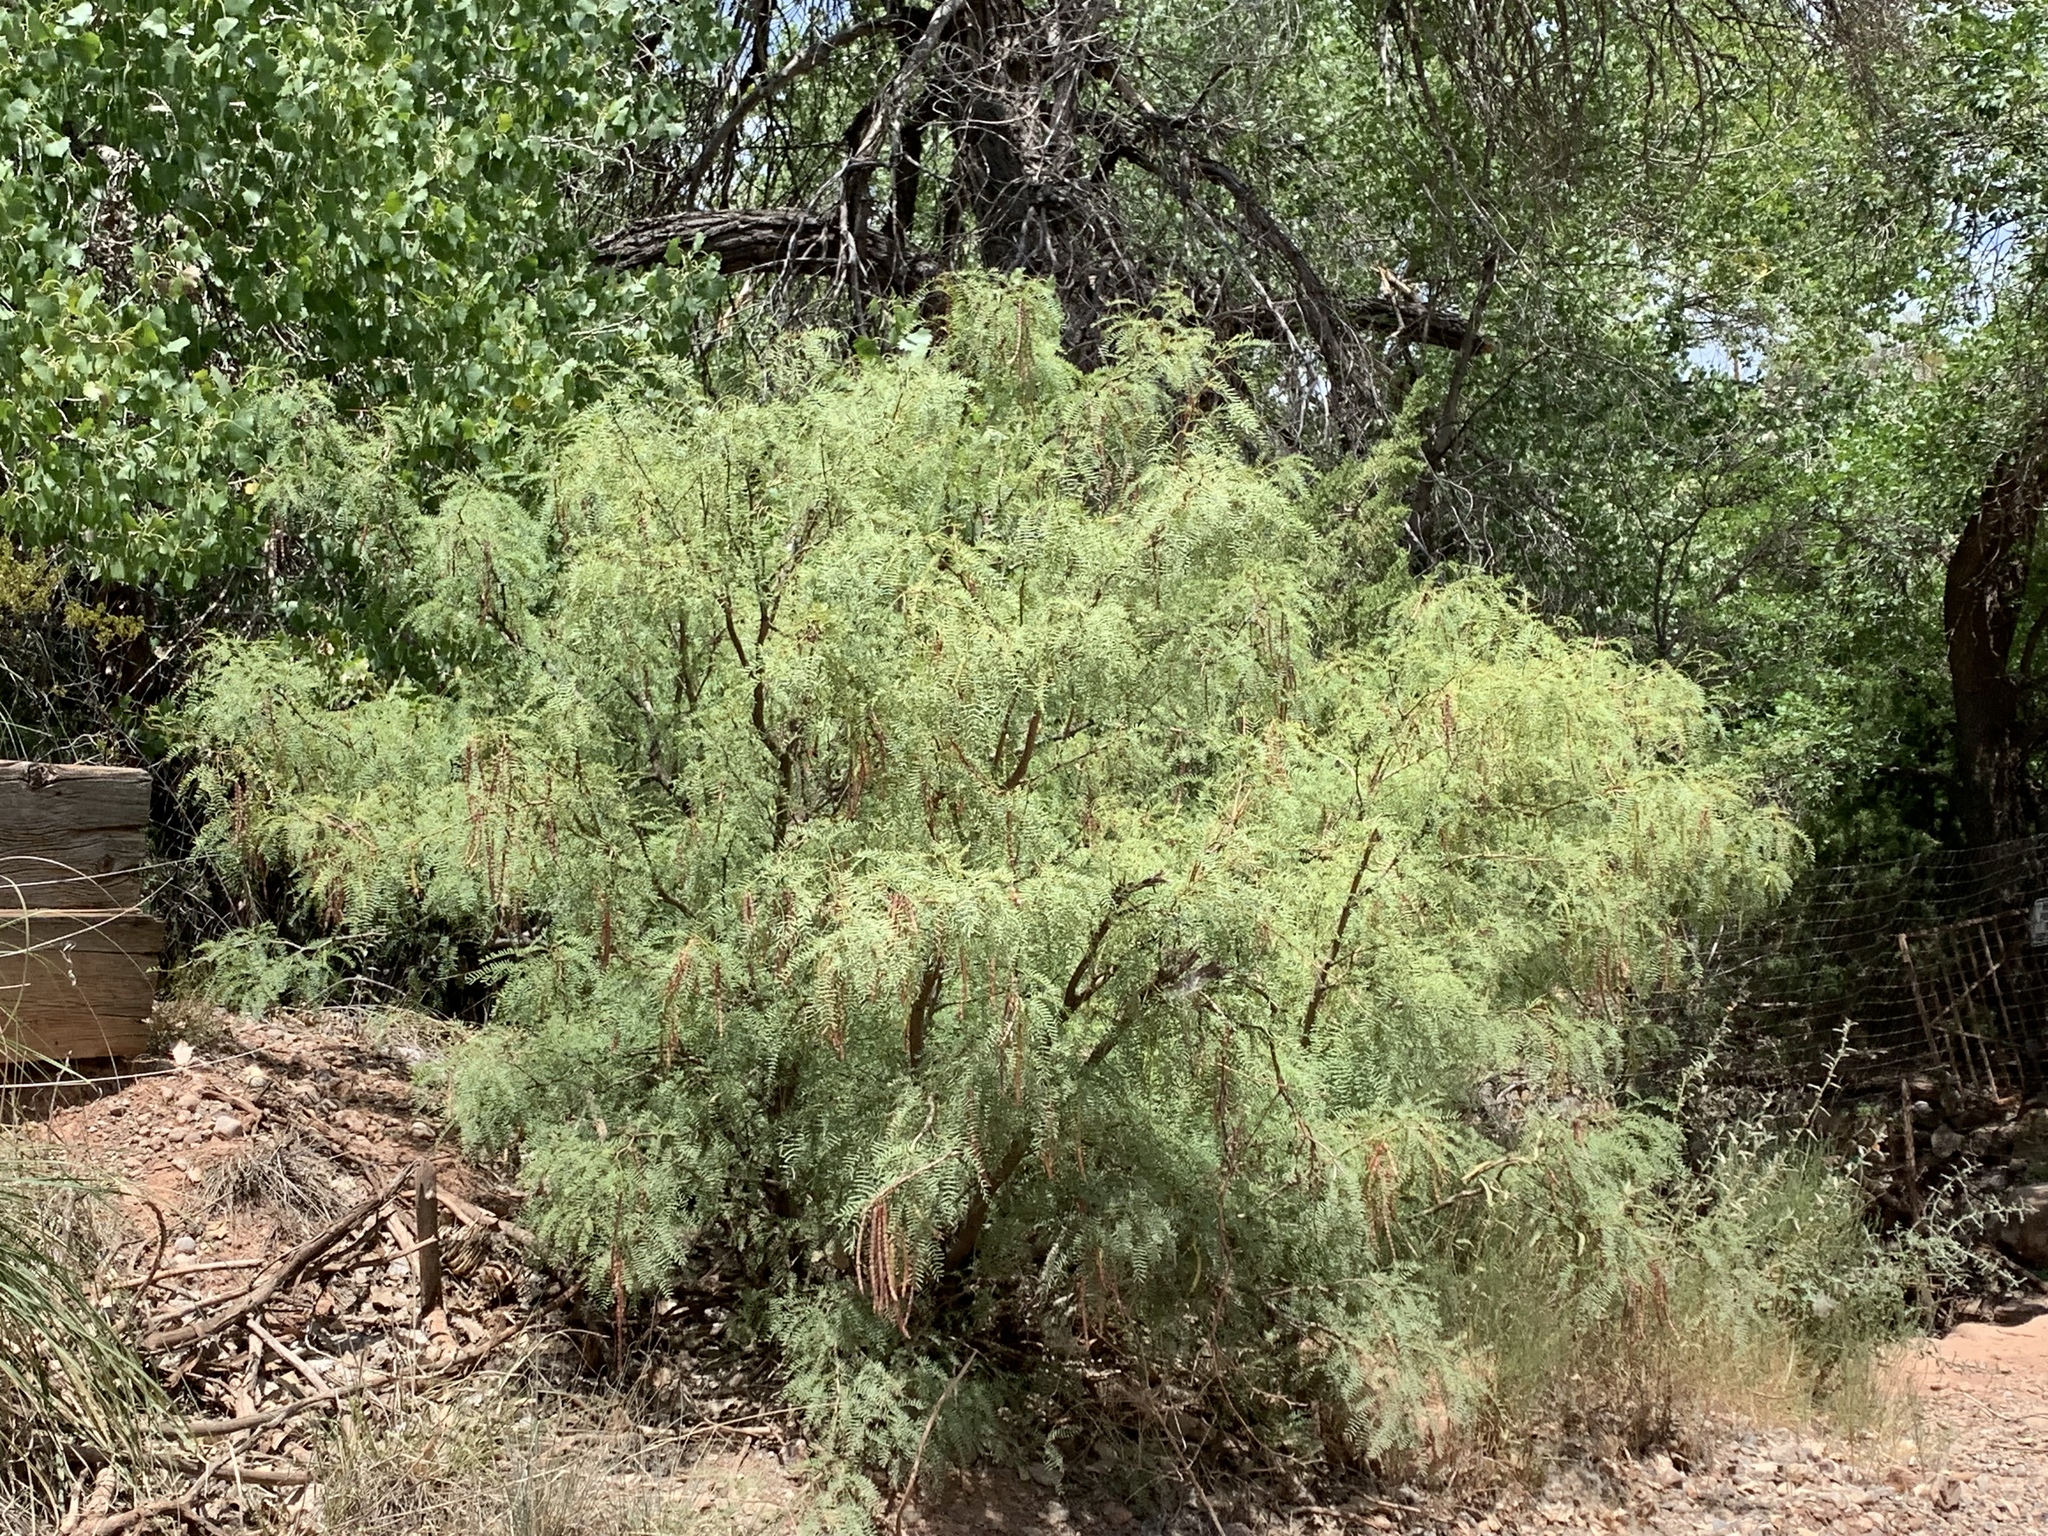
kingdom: Plantae
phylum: Tracheophyta
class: Magnoliopsida
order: Fabales
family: Fabaceae
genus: Prosopis
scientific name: Prosopis glandulosa
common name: Honey mesquite
